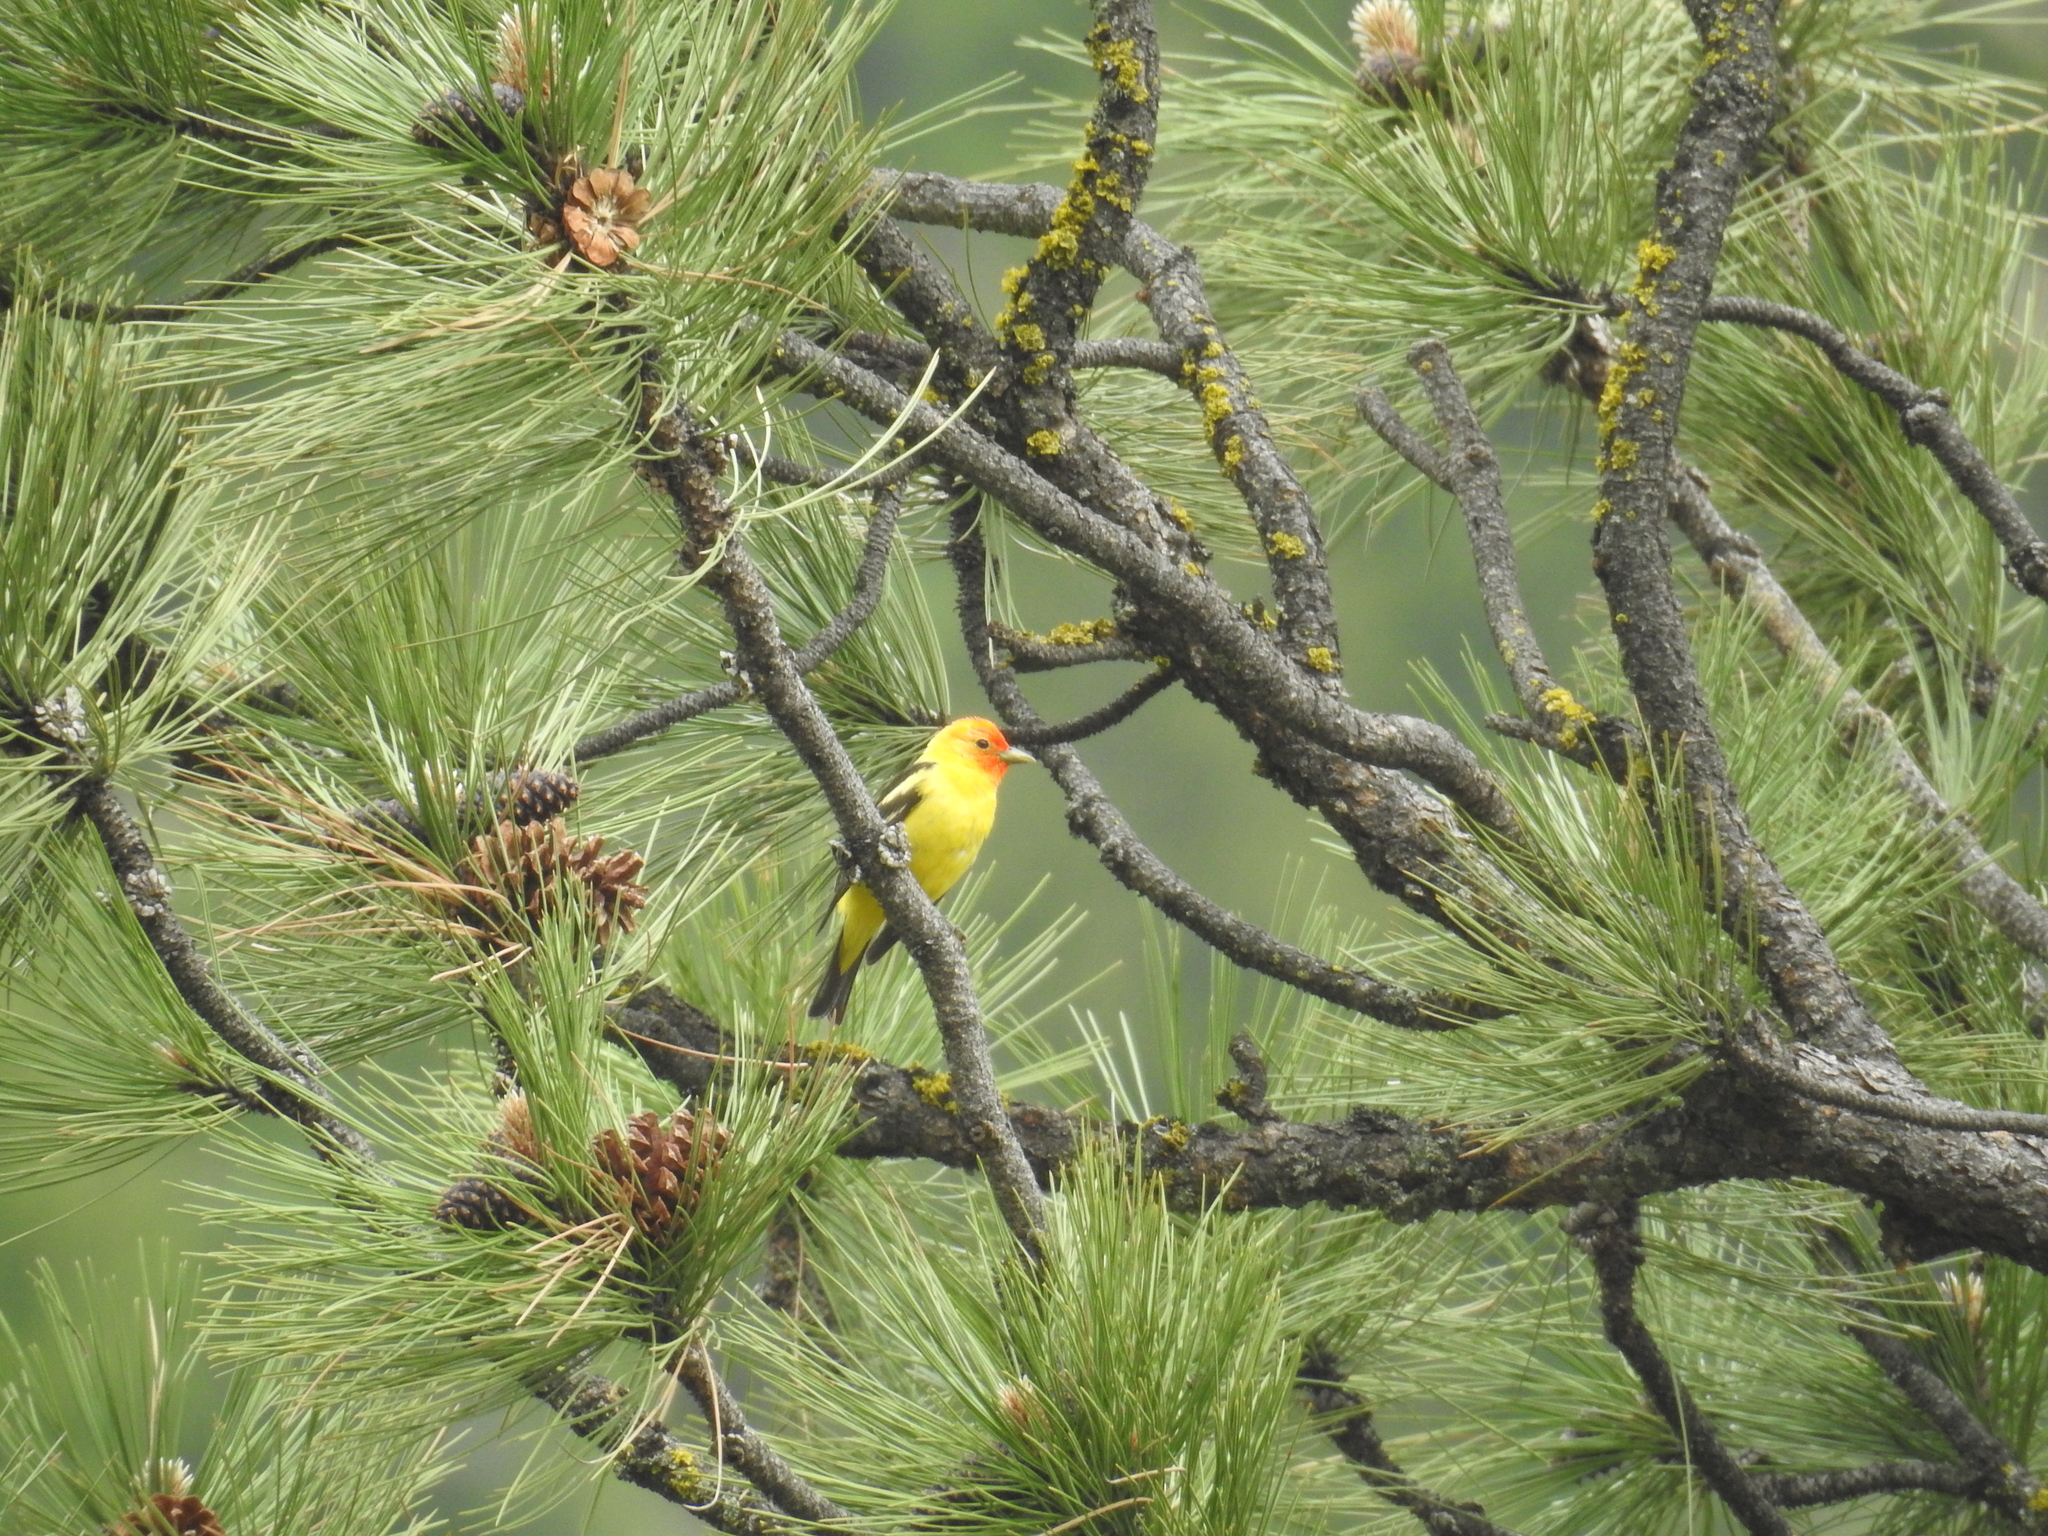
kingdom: Animalia
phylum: Chordata
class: Aves
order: Passeriformes
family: Cardinalidae
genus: Piranga
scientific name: Piranga ludoviciana
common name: Western tanager
